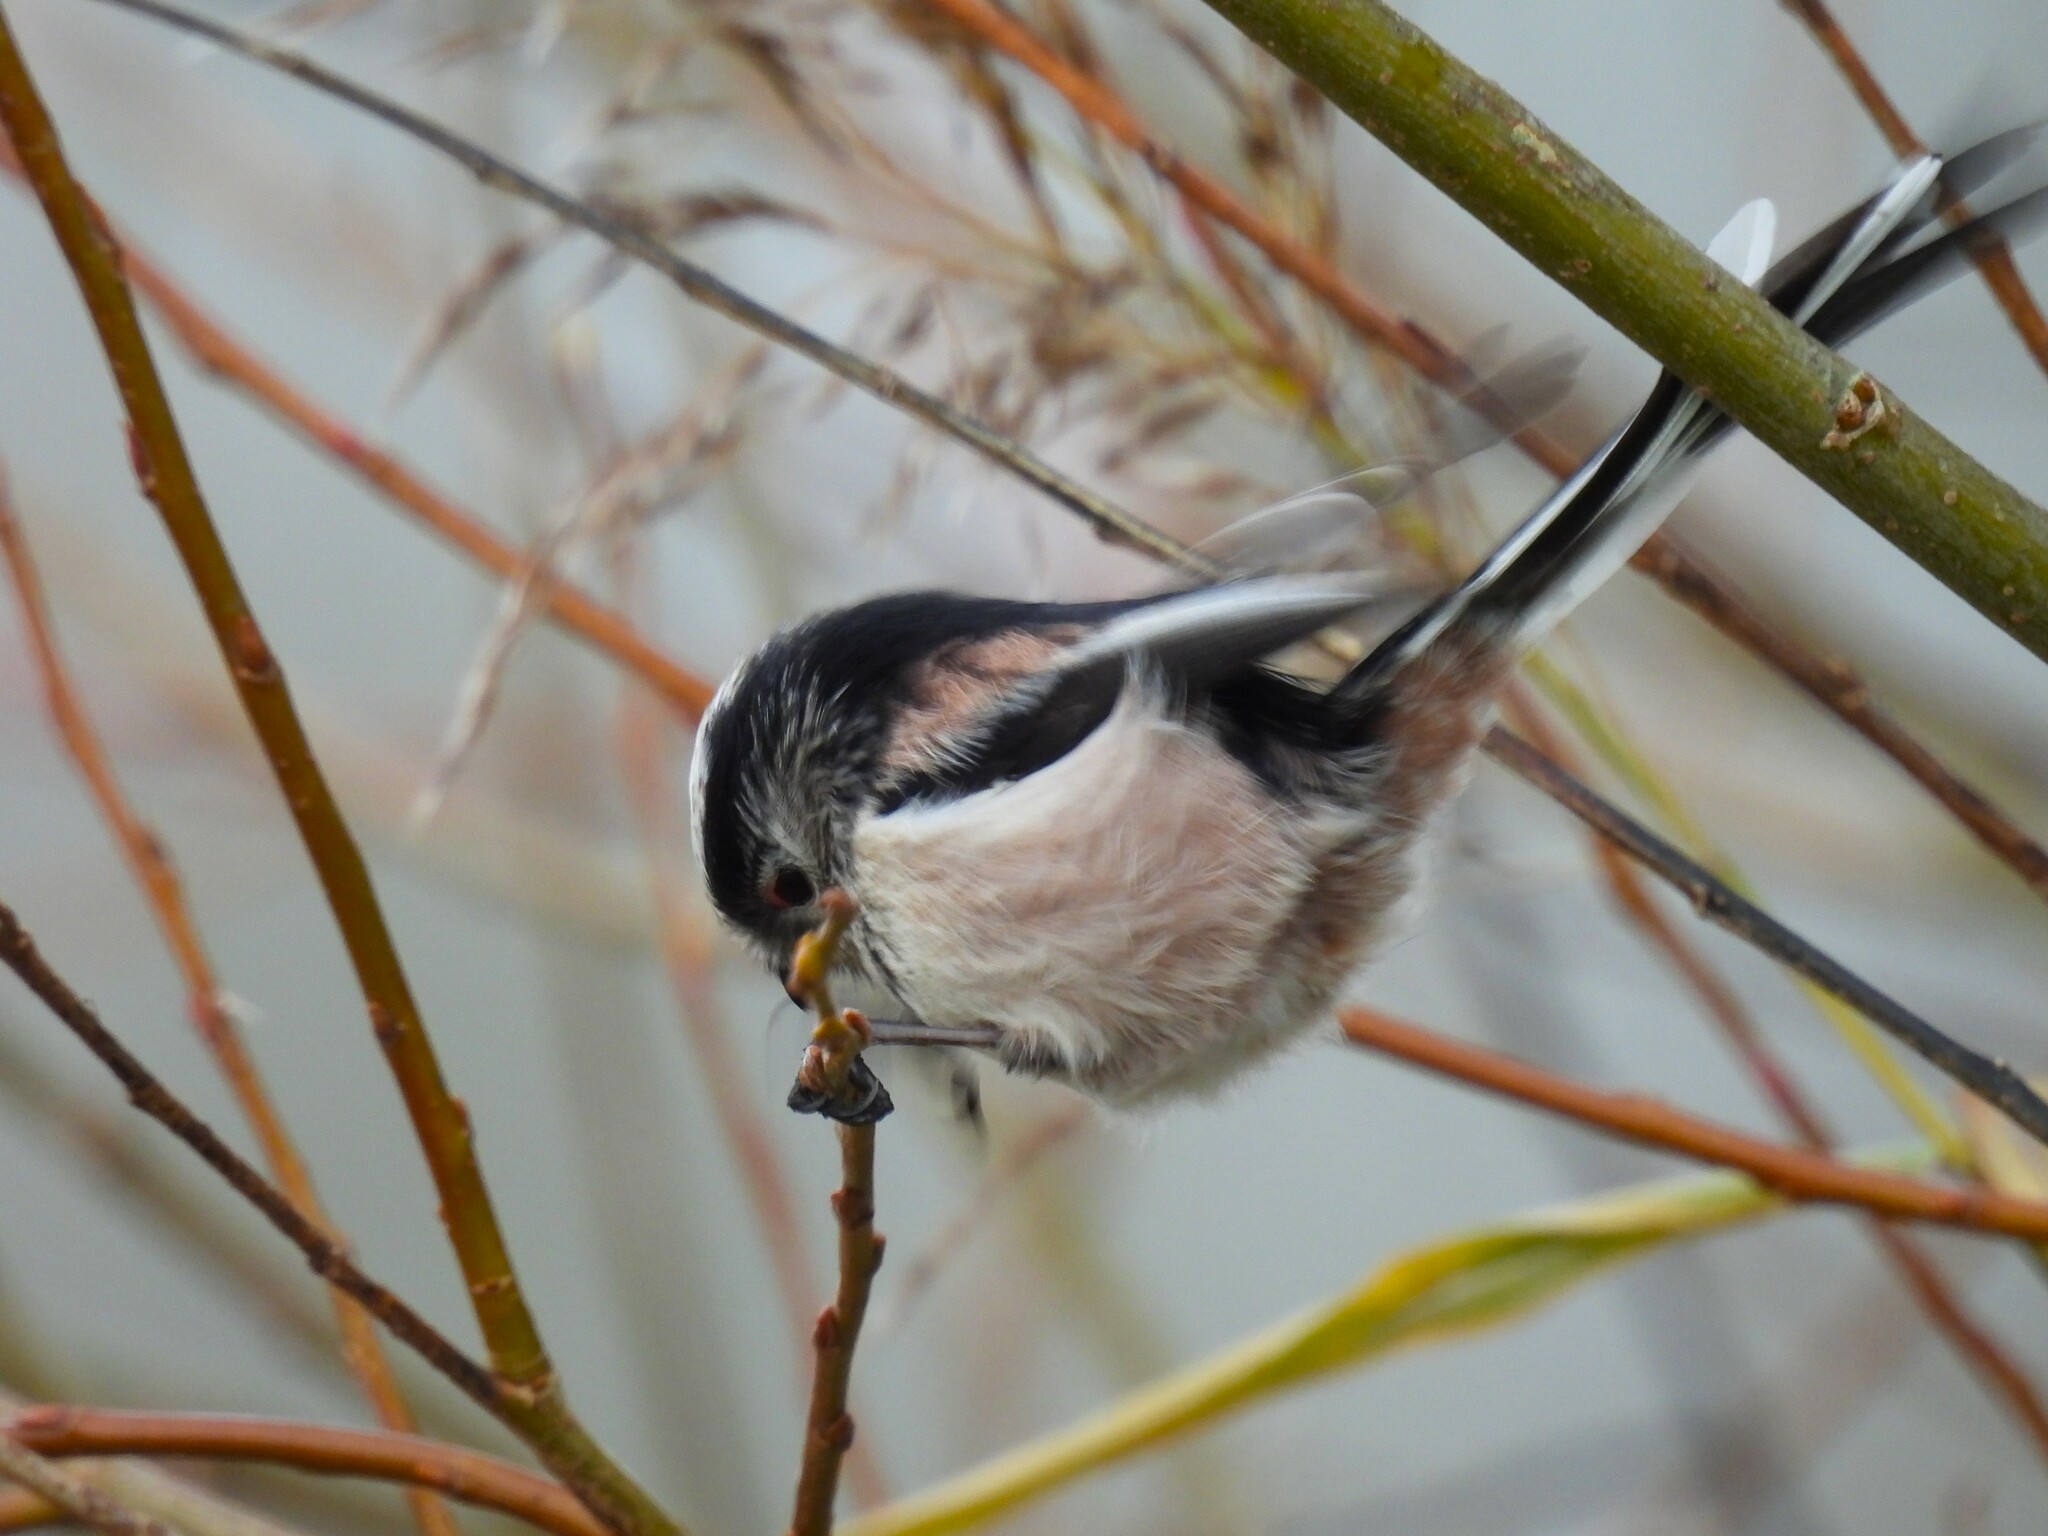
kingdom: Animalia
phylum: Chordata
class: Aves
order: Passeriformes
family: Aegithalidae
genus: Aegithalos
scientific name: Aegithalos caudatus
